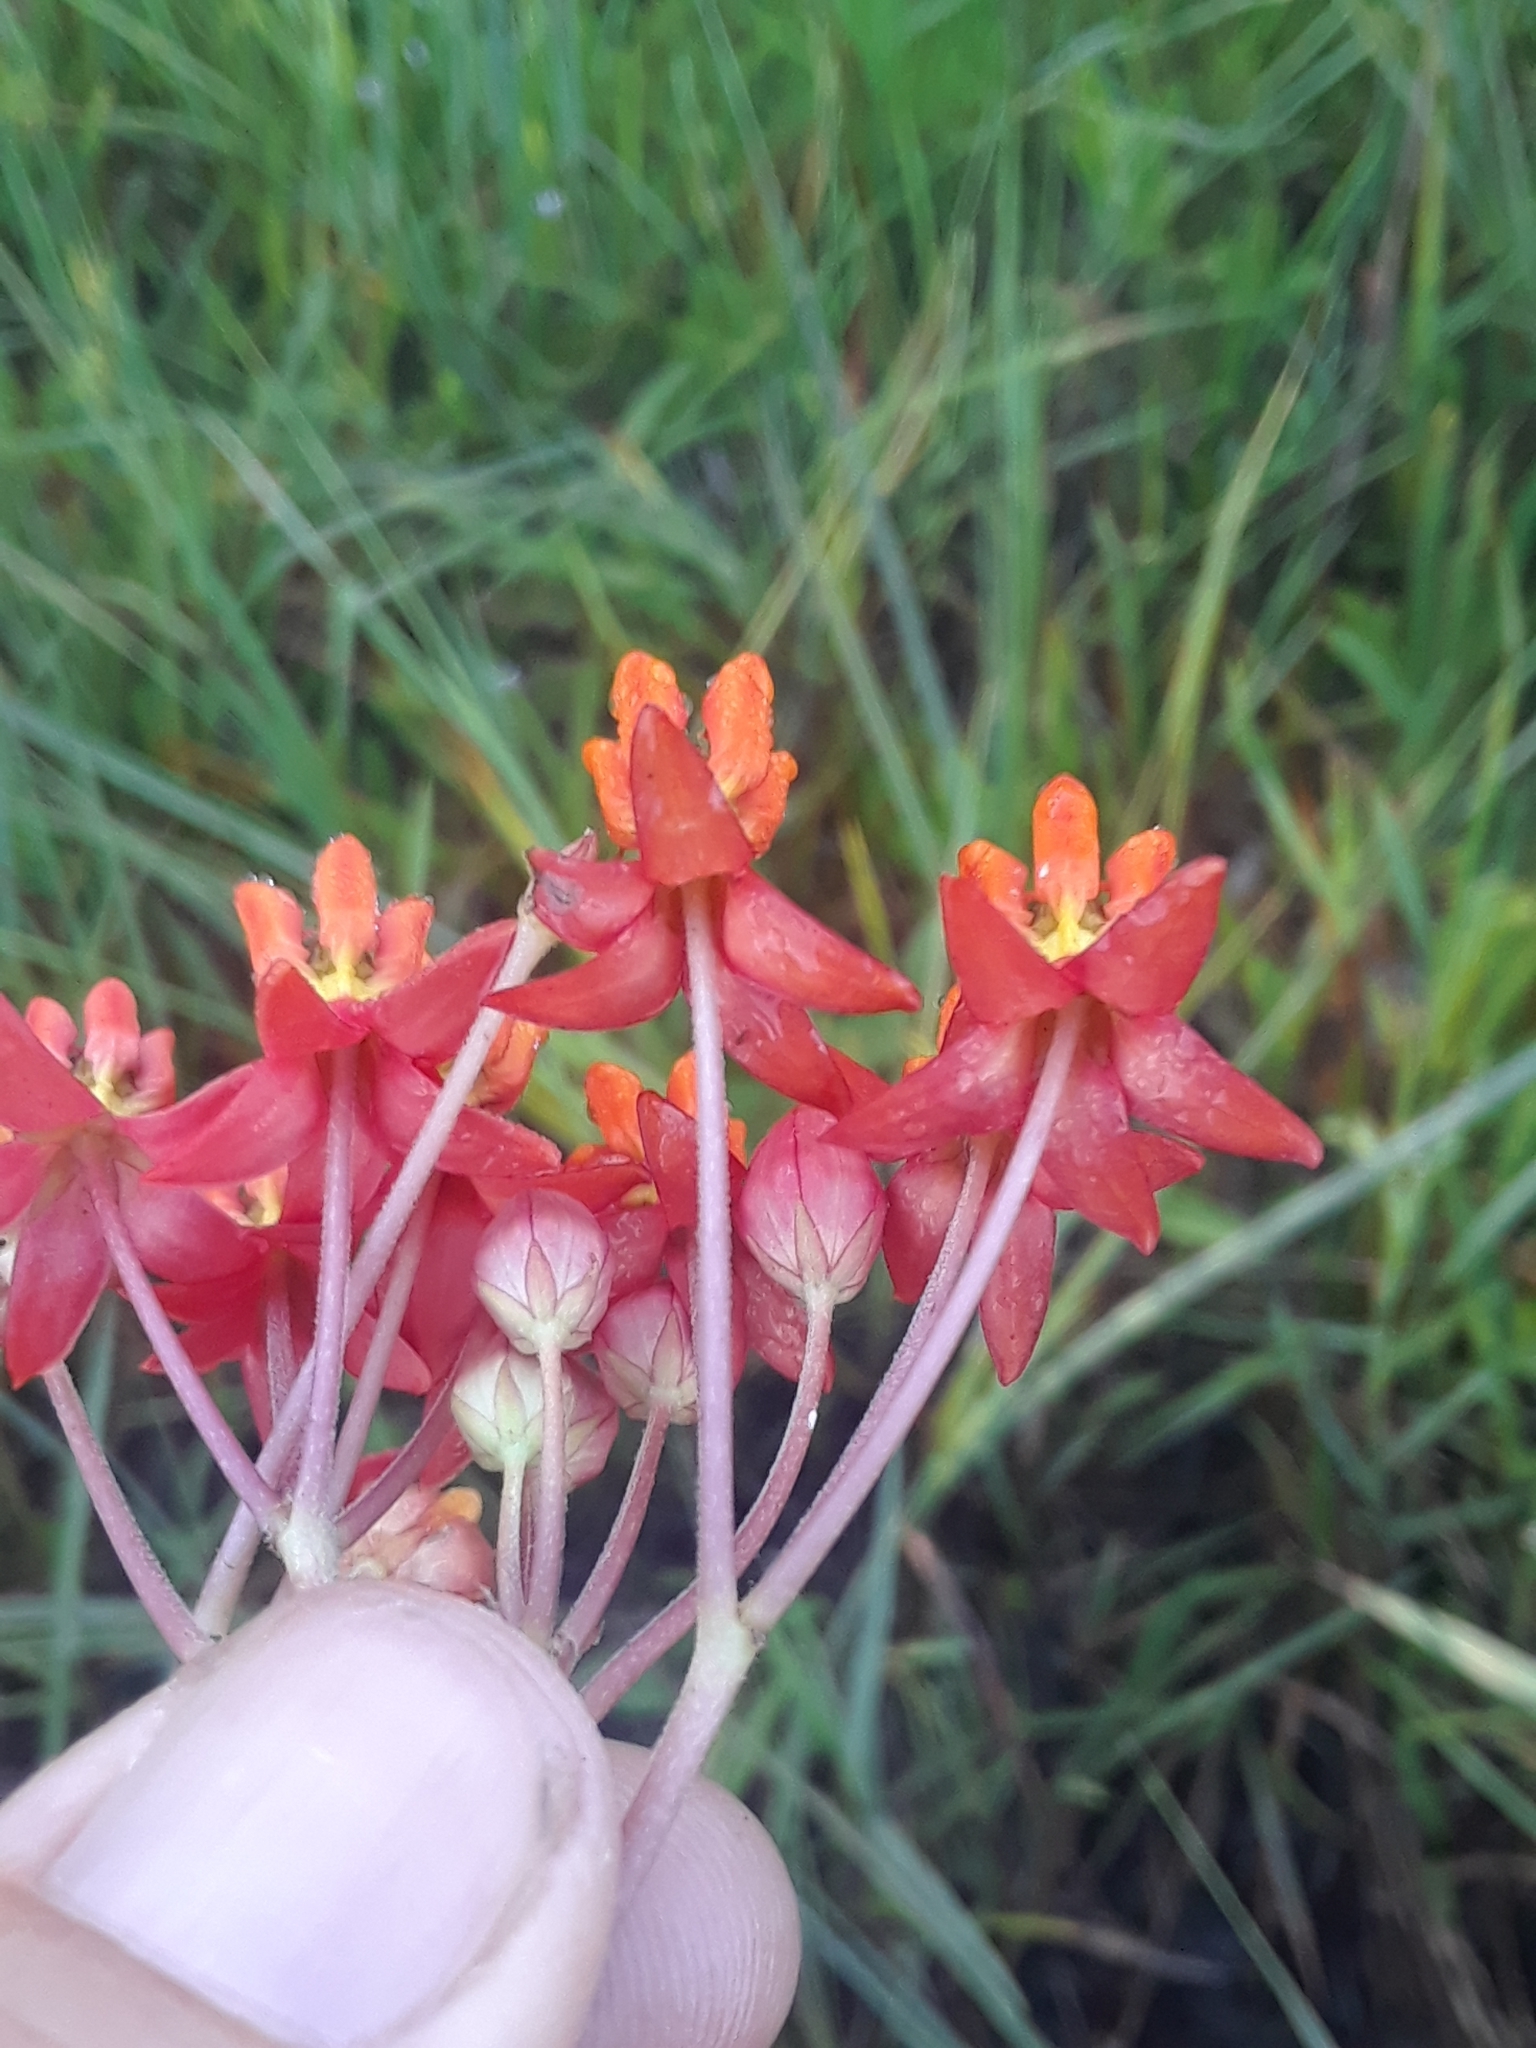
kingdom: Plantae
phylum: Tracheophyta
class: Magnoliopsida
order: Gentianales
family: Apocynaceae
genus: Asclepias
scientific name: Asclepias lanceolata
